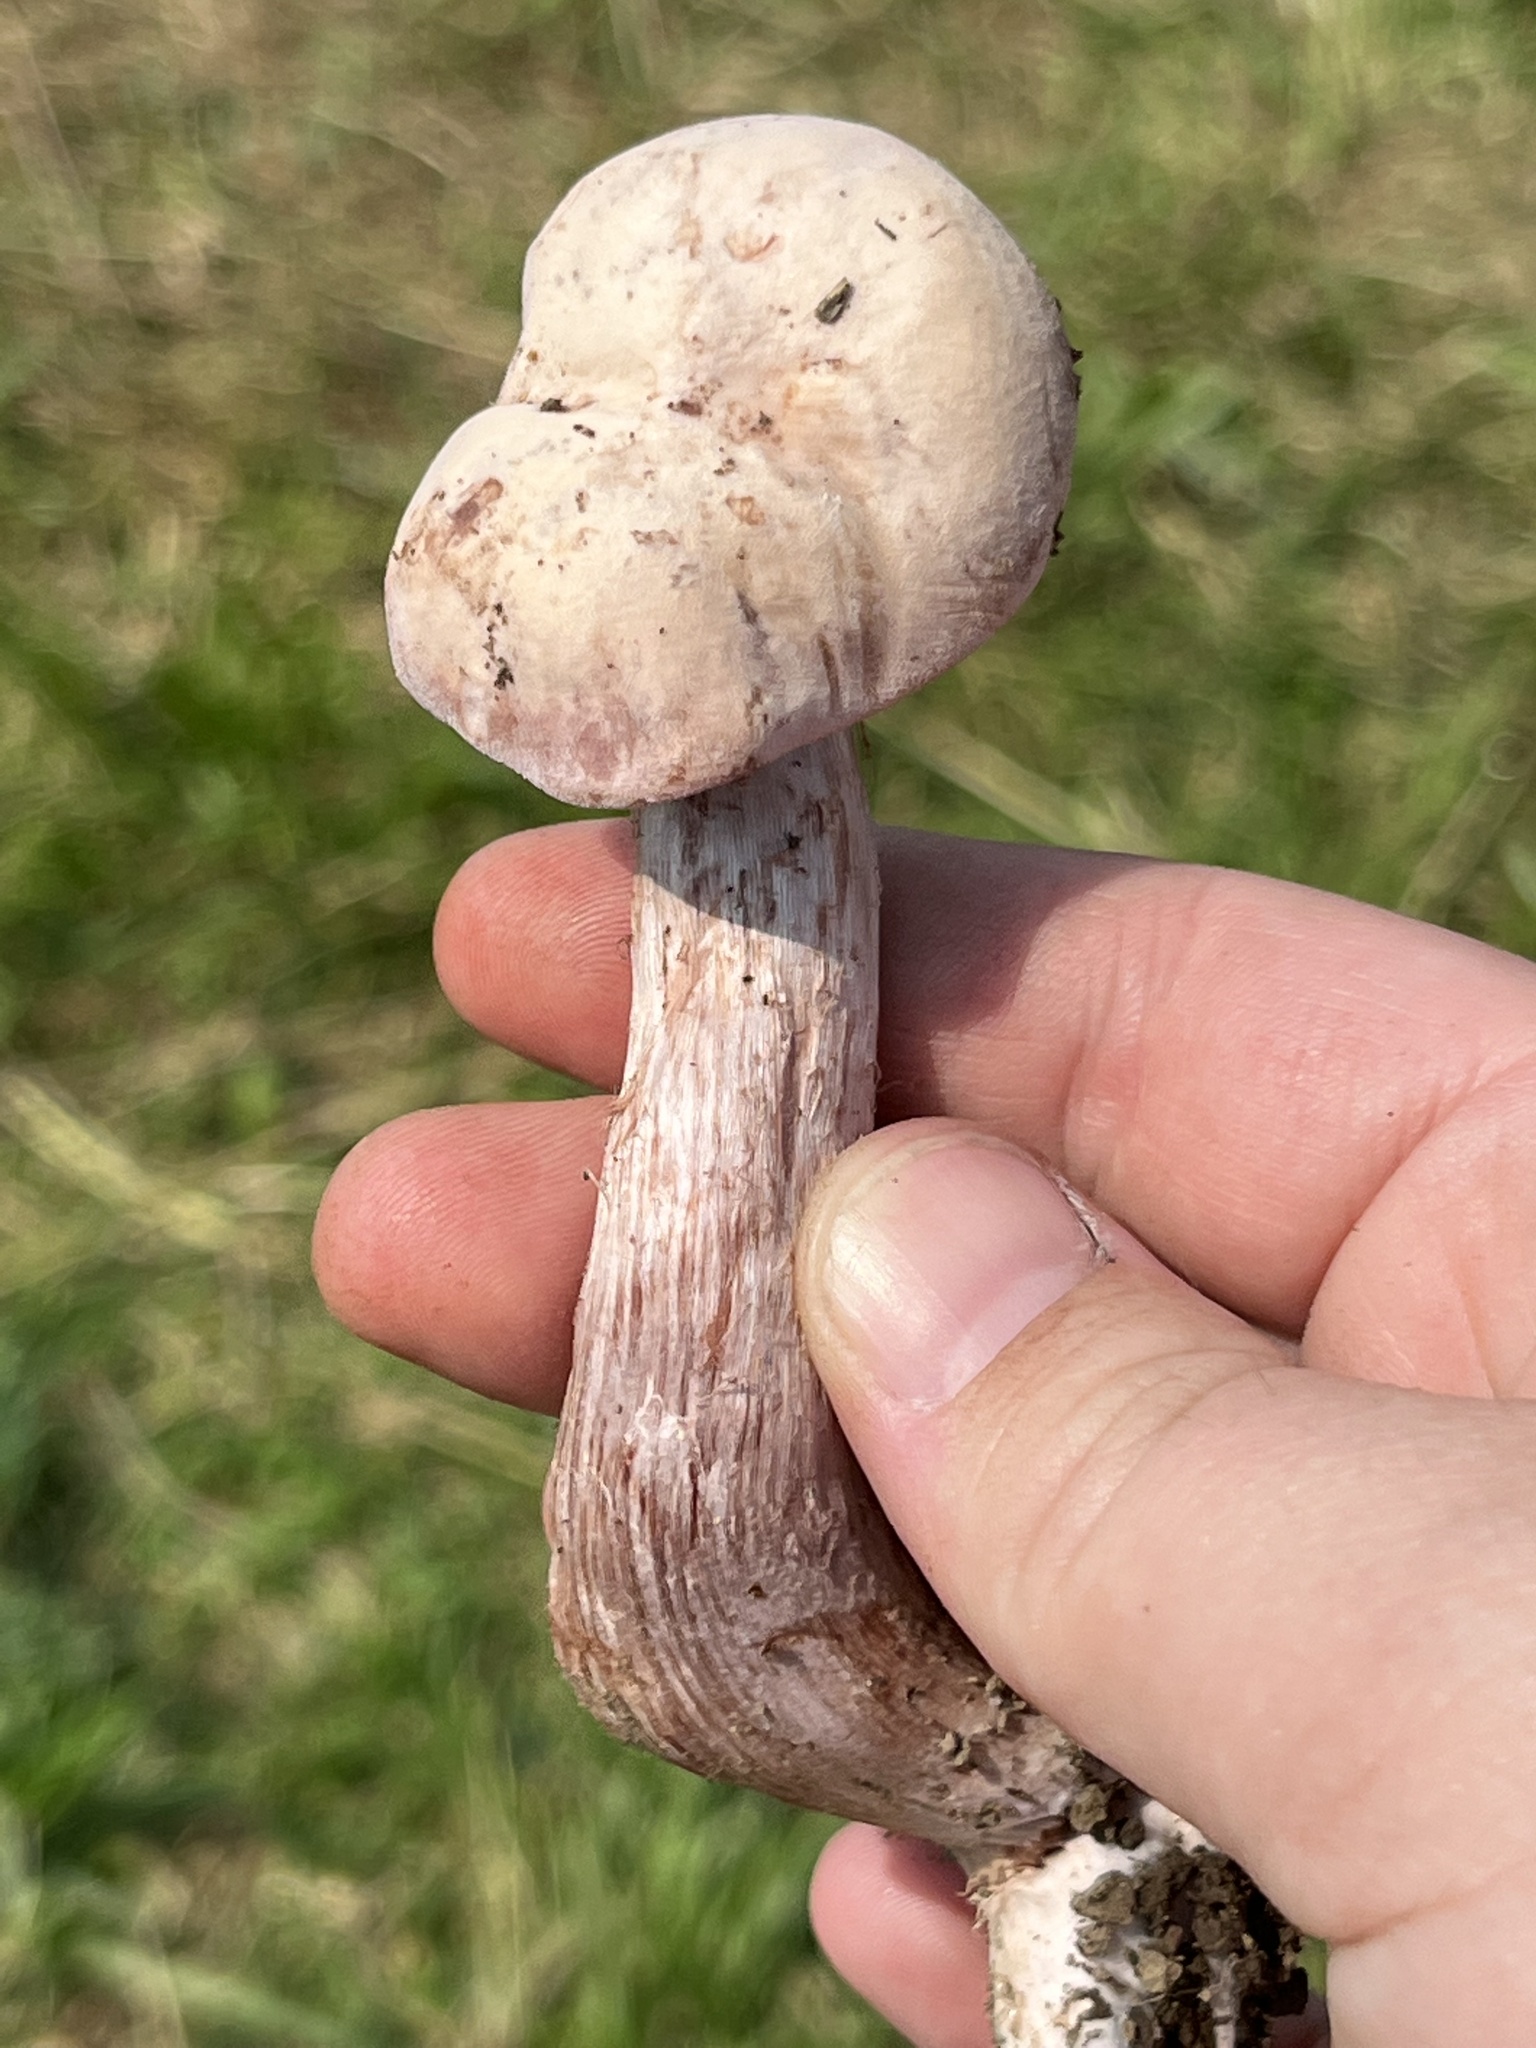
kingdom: Fungi
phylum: Basidiomycota
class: Agaricomycetes
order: Agaricales
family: Hydnangiaceae
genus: Laccaria
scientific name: Laccaria ochropurpurea
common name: Purple laccaria
